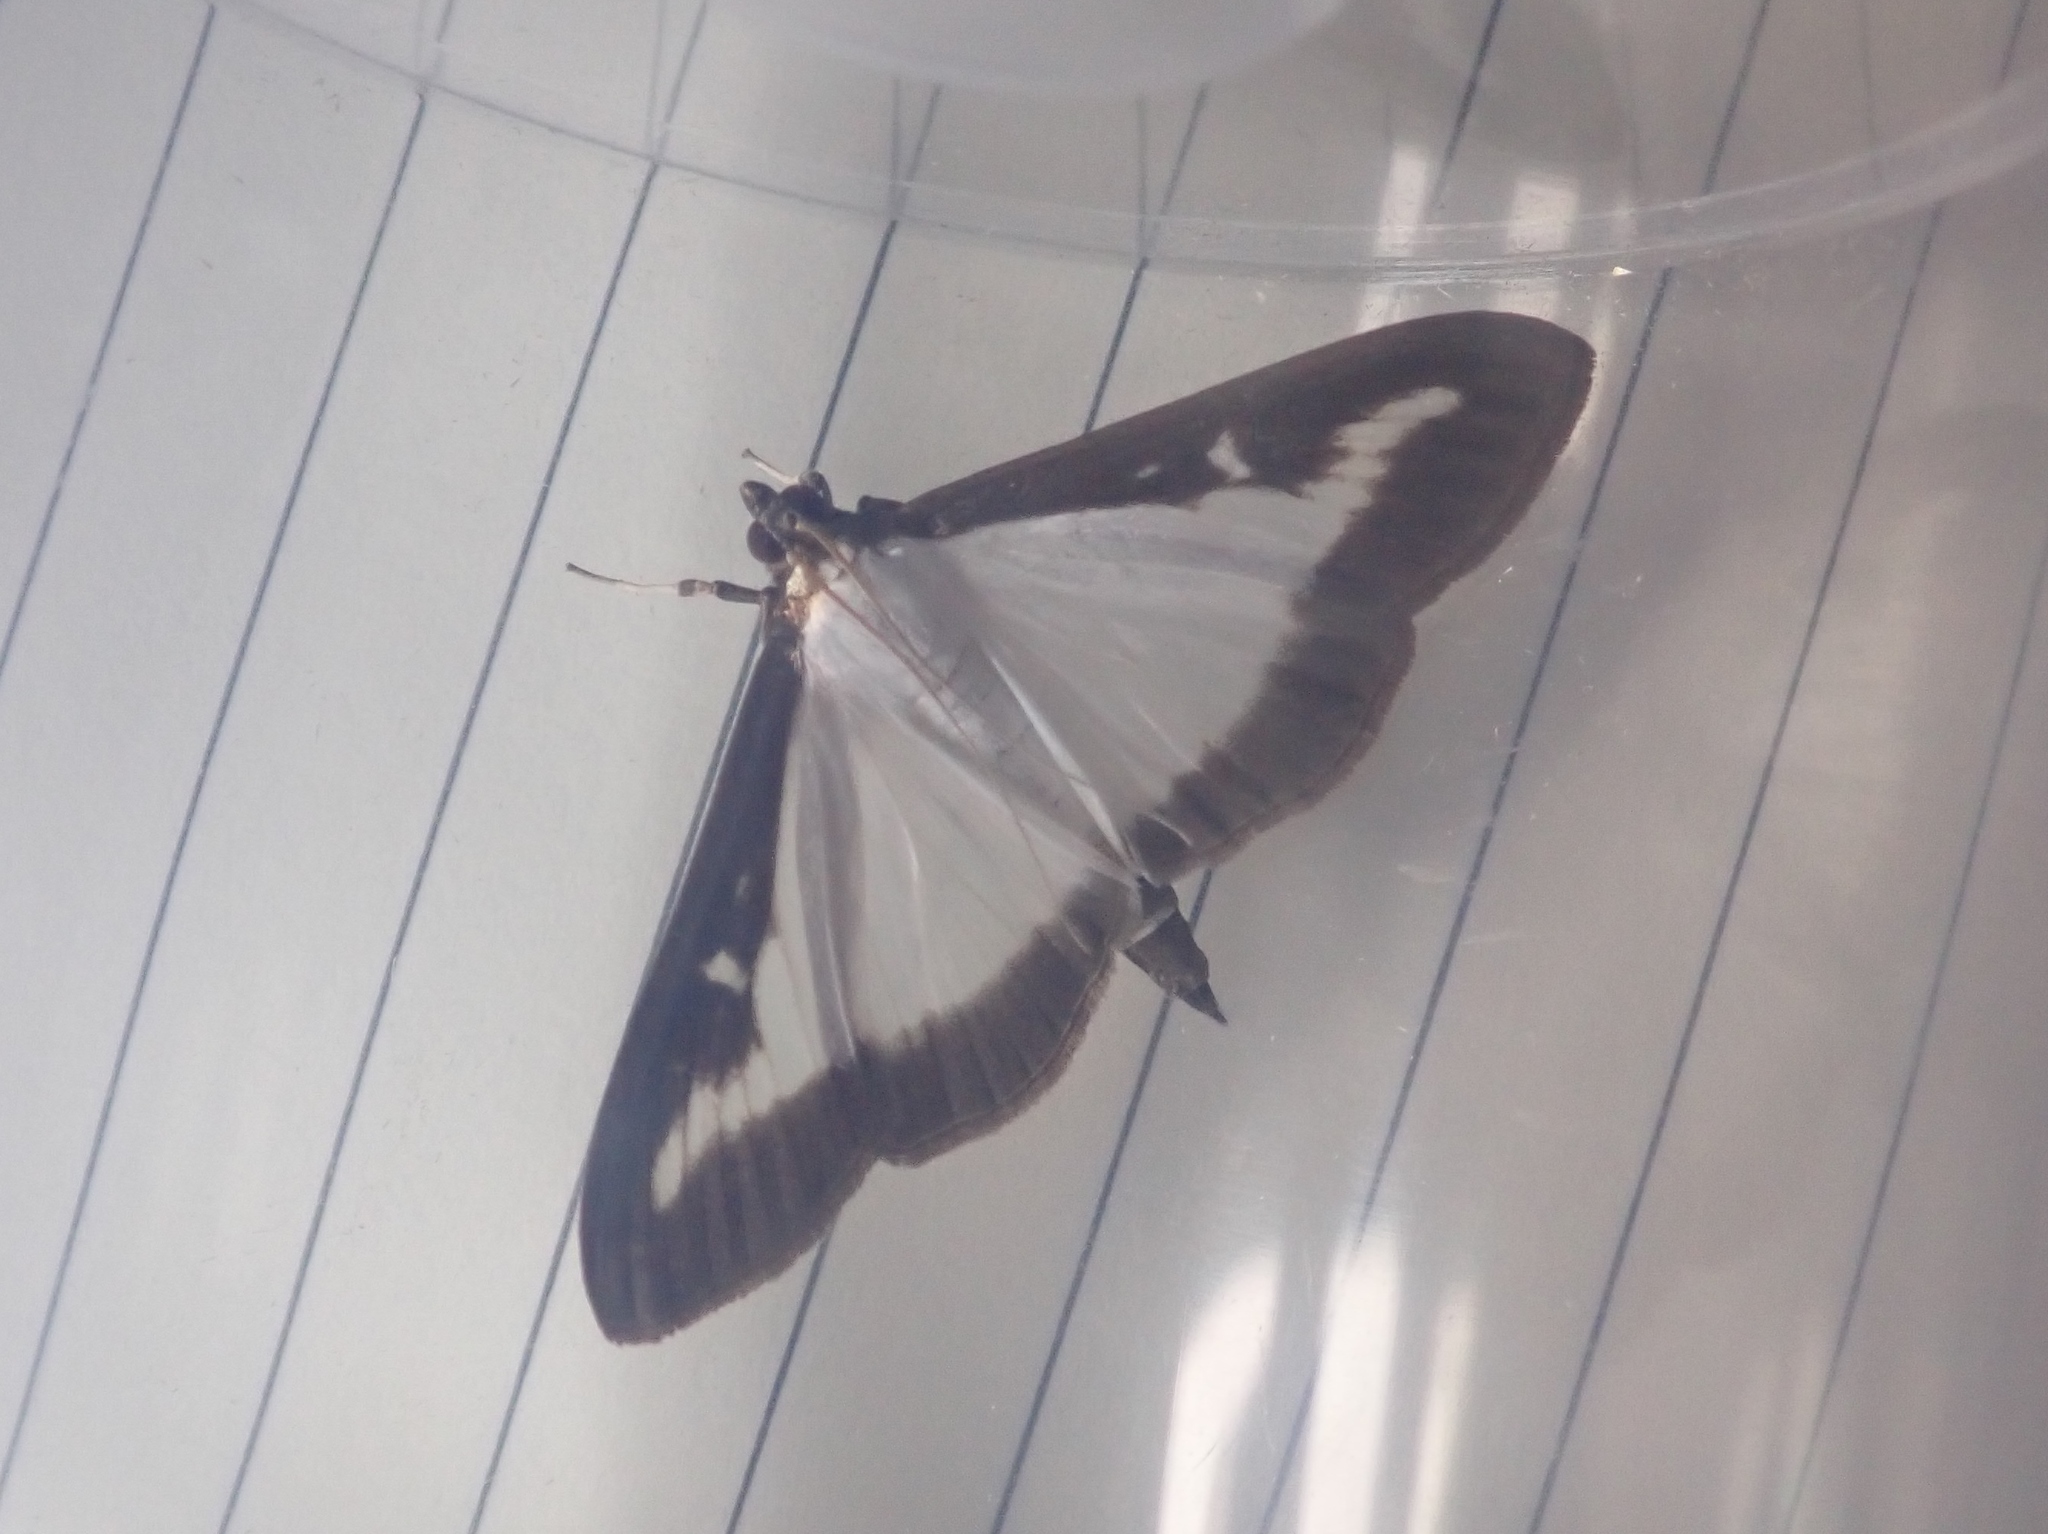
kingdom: Animalia
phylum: Arthropoda
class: Insecta
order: Lepidoptera
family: Crambidae
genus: Cydalima
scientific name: Cydalima perspectalis
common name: Box tree moth
